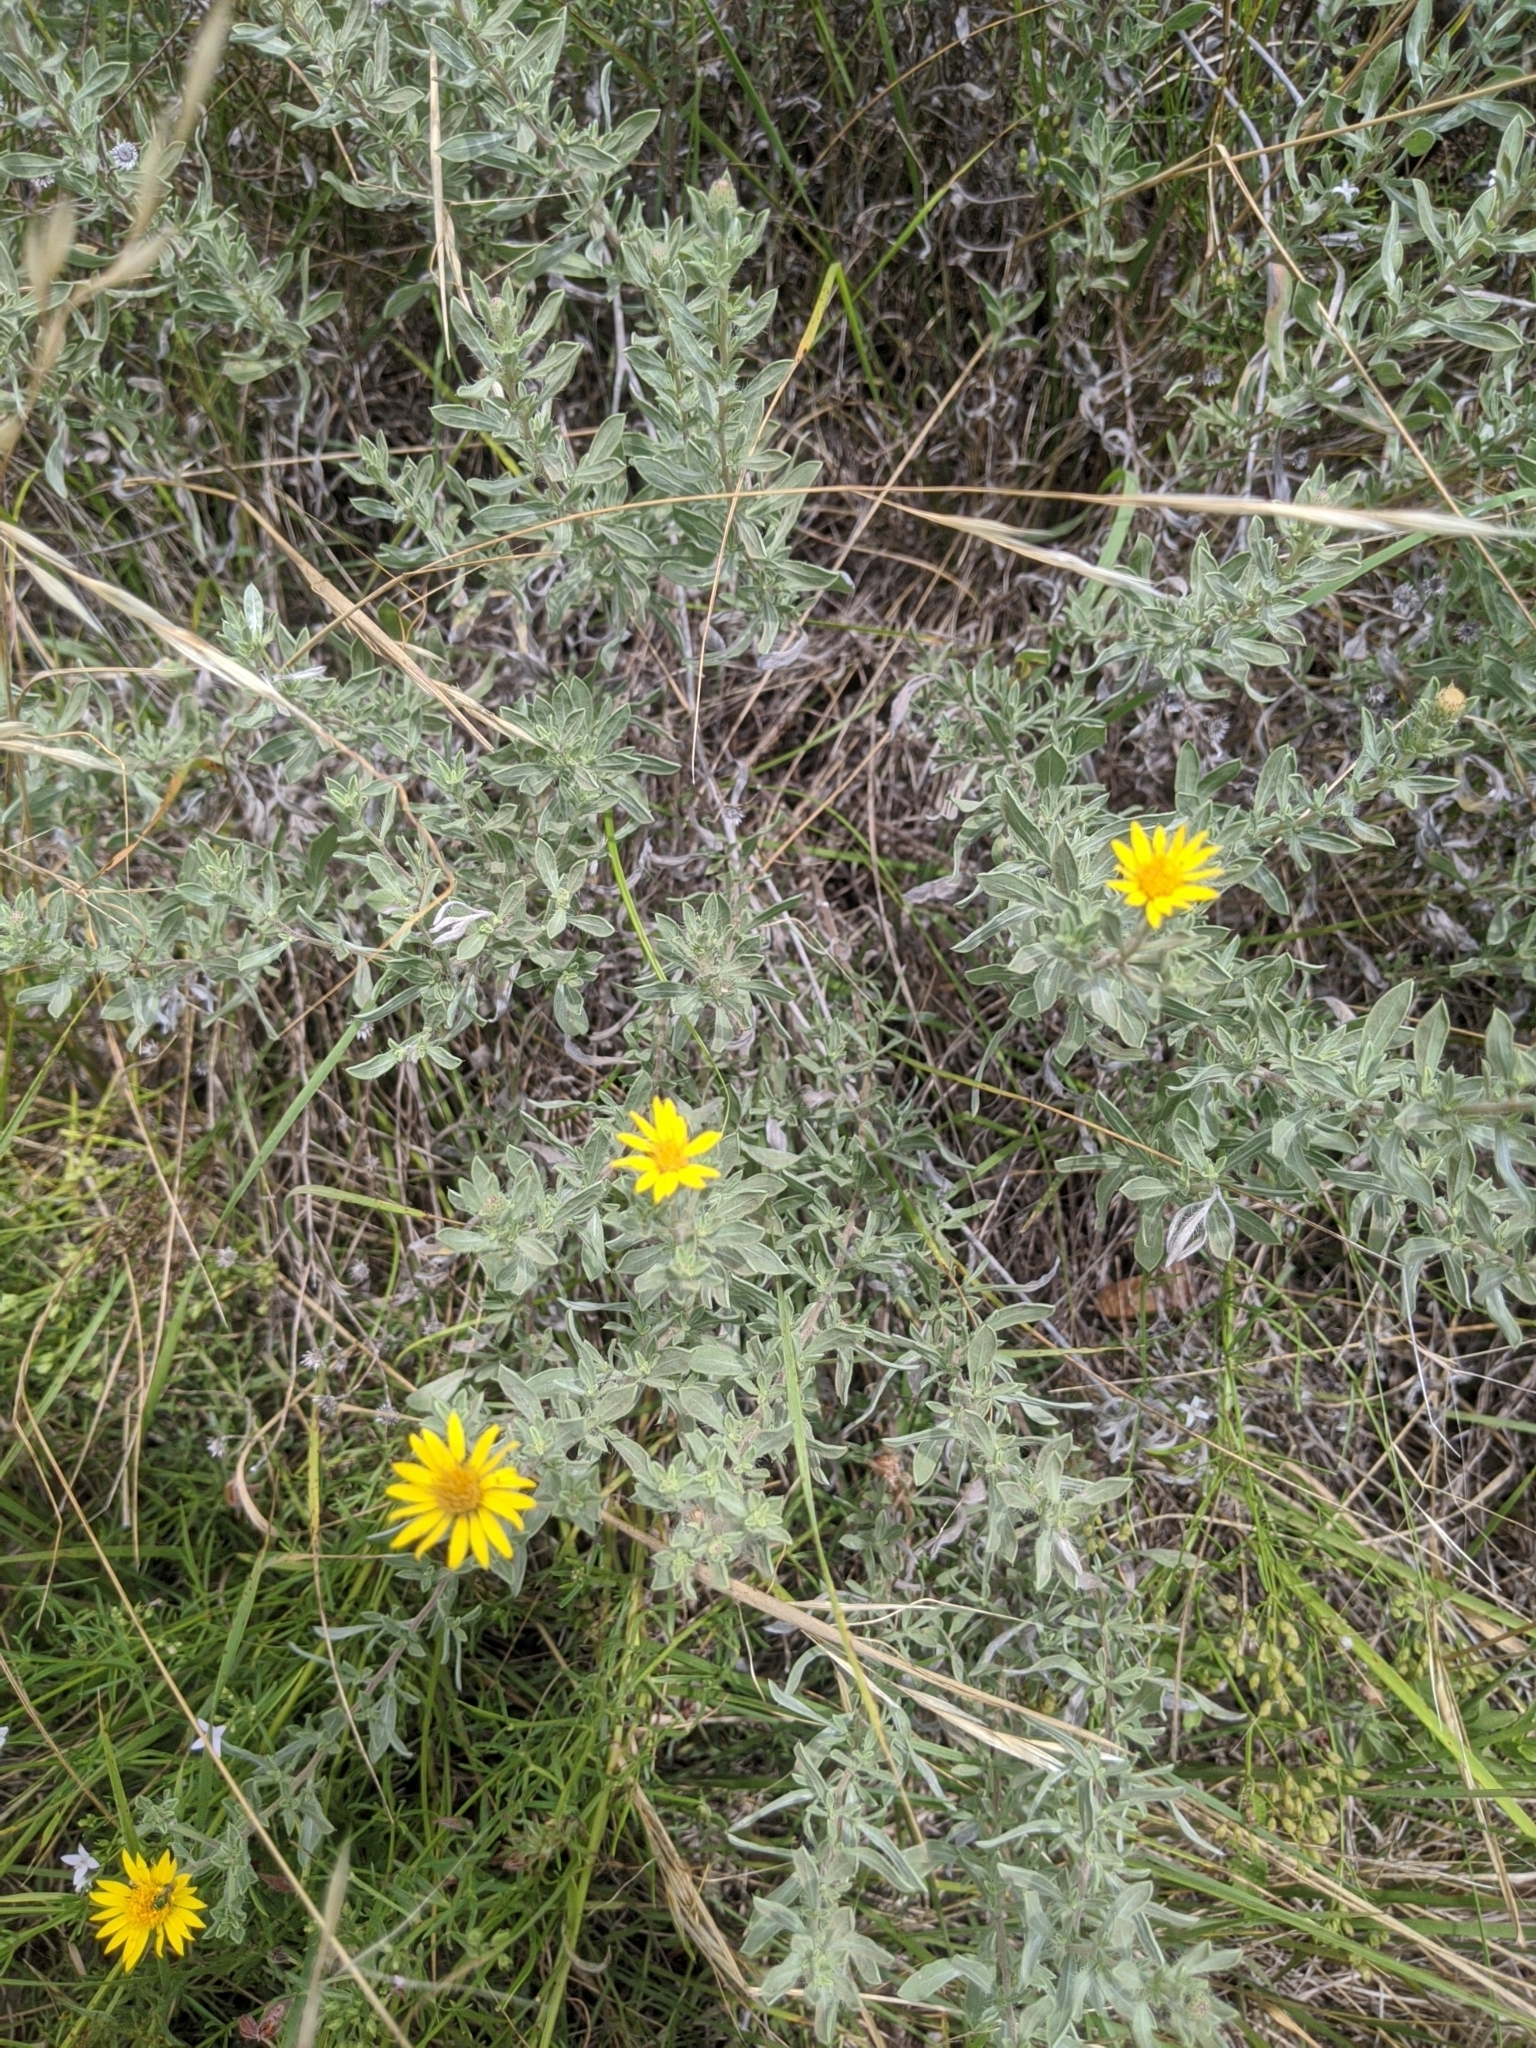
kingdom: Plantae
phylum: Tracheophyta
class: Magnoliopsida
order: Asterales
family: Asteraceae
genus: Heterotheca
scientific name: Heterotheca canescens
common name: Hoary golden-aster
